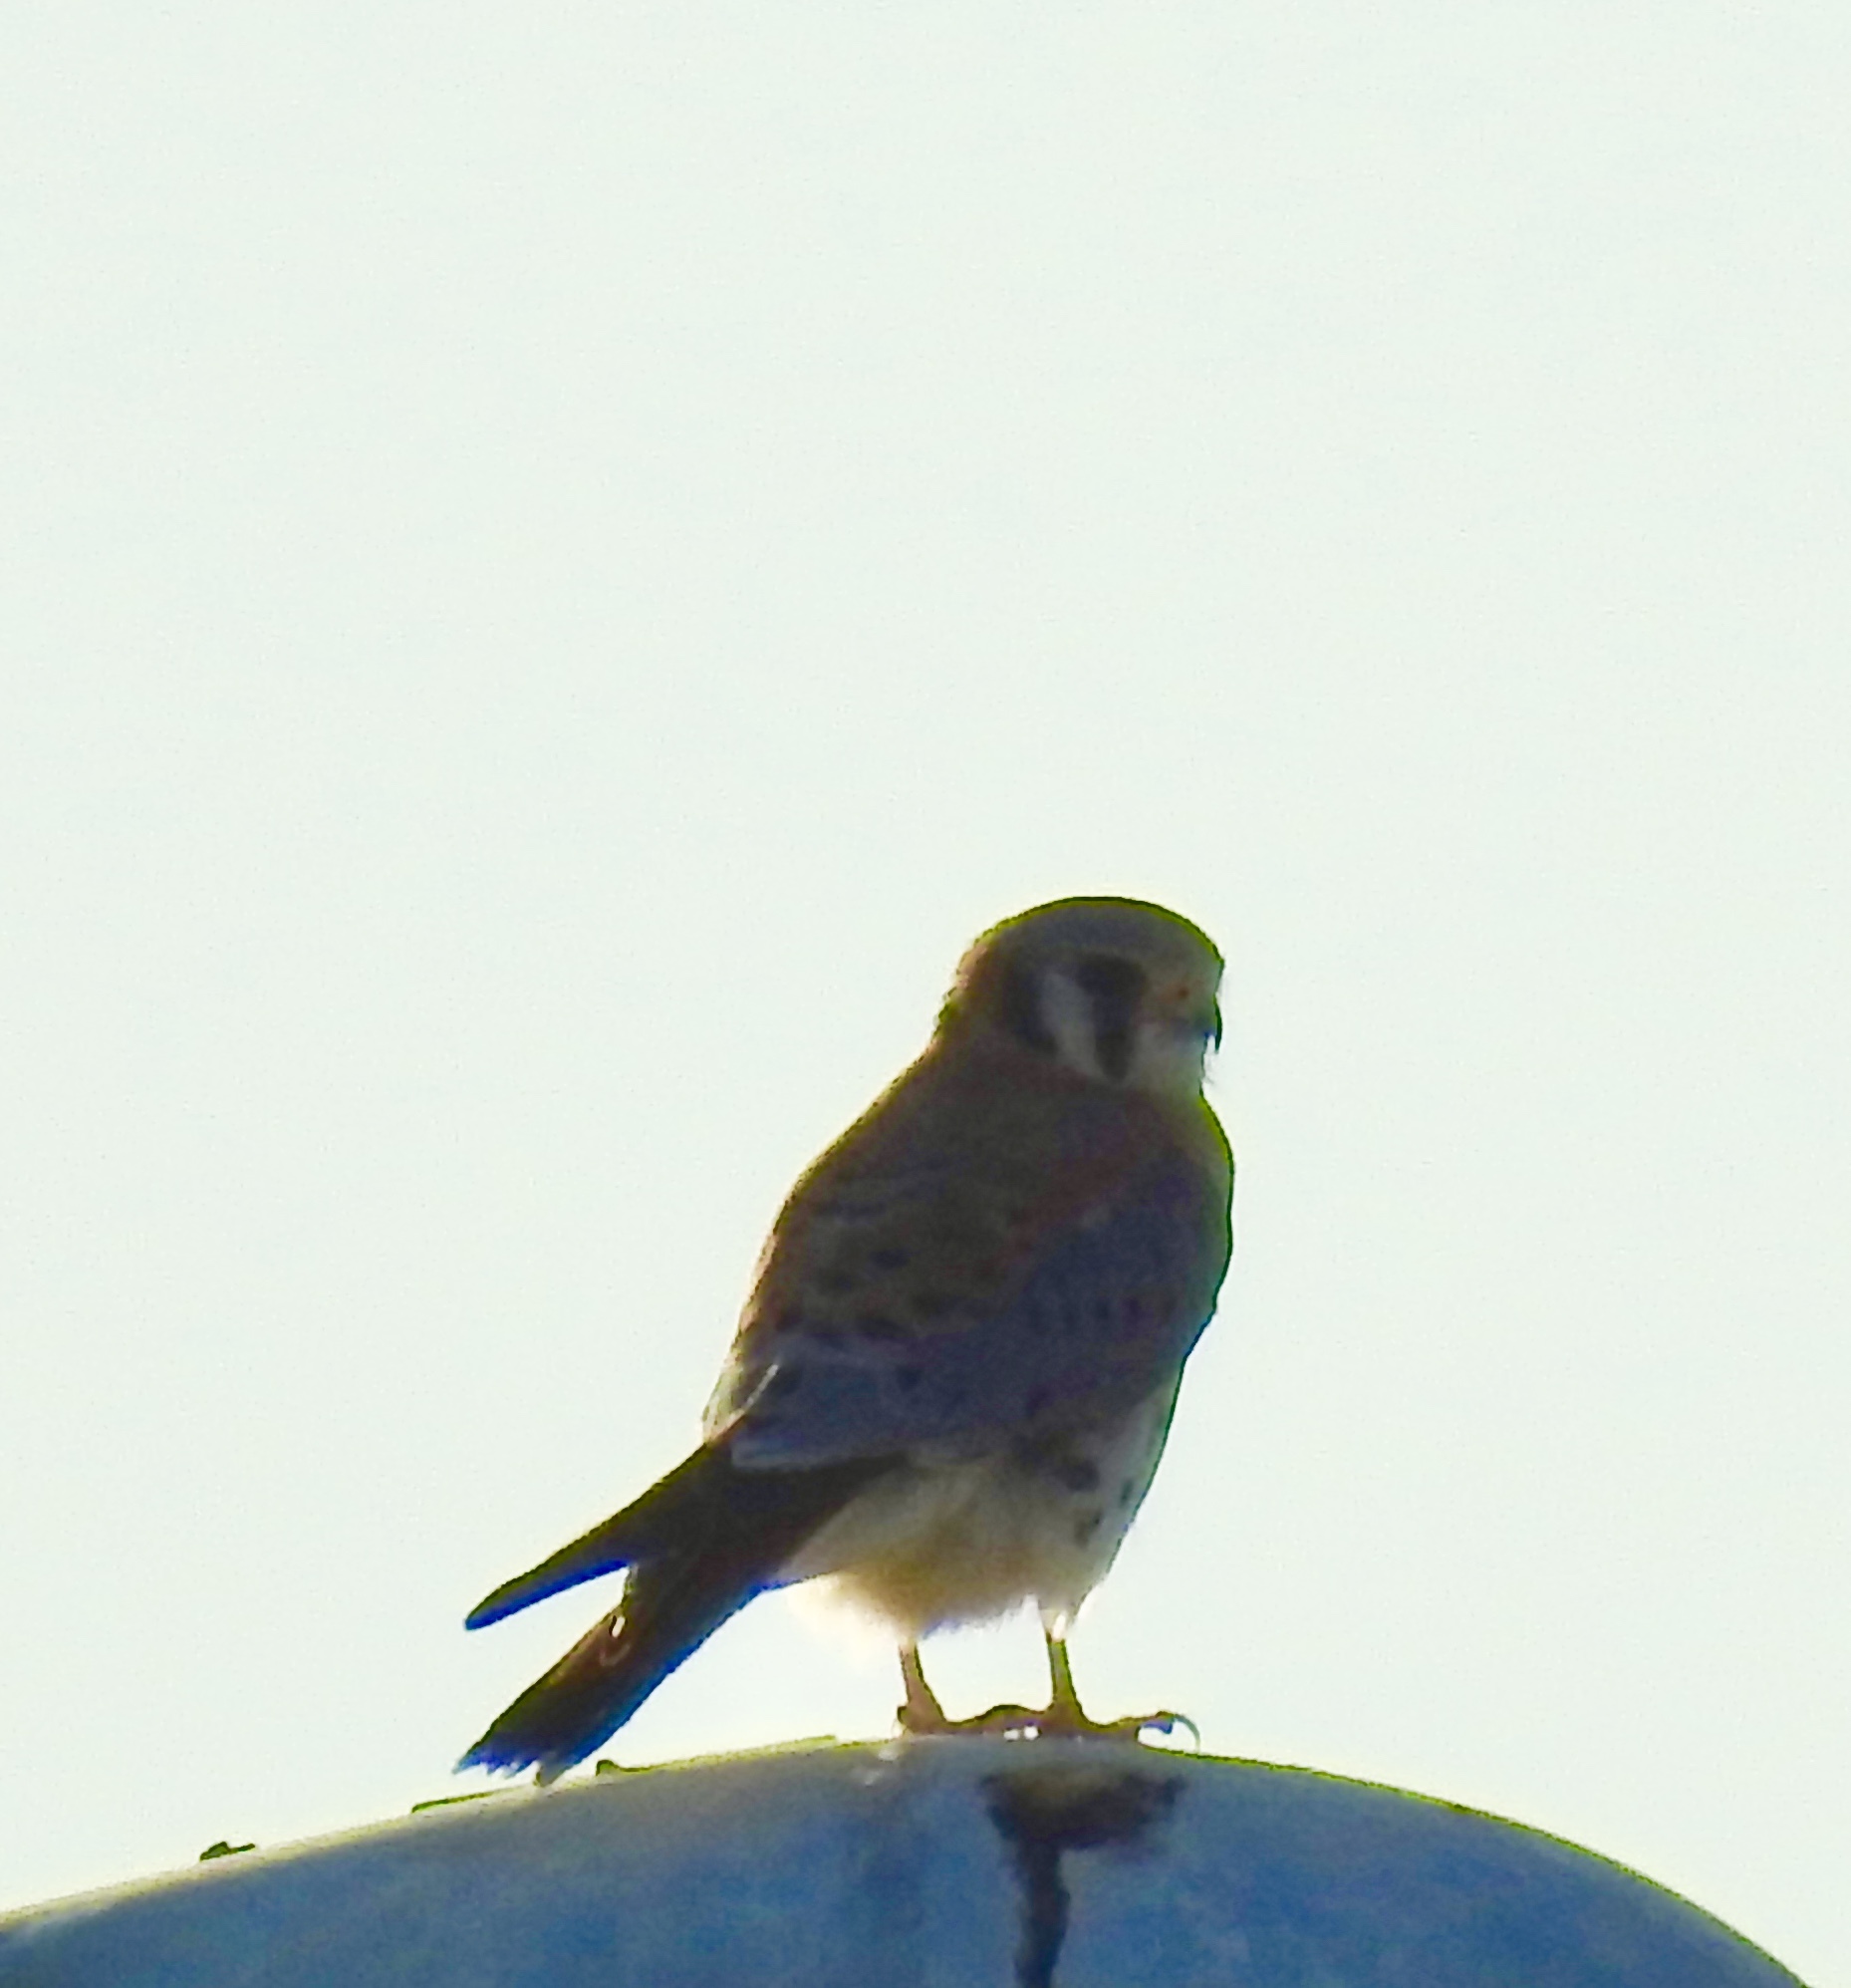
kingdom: Animalia
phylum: Chordata
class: Aves
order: Falconiformes
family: Falconidae
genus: Falco
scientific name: Falco sparverius
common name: American kestrel
